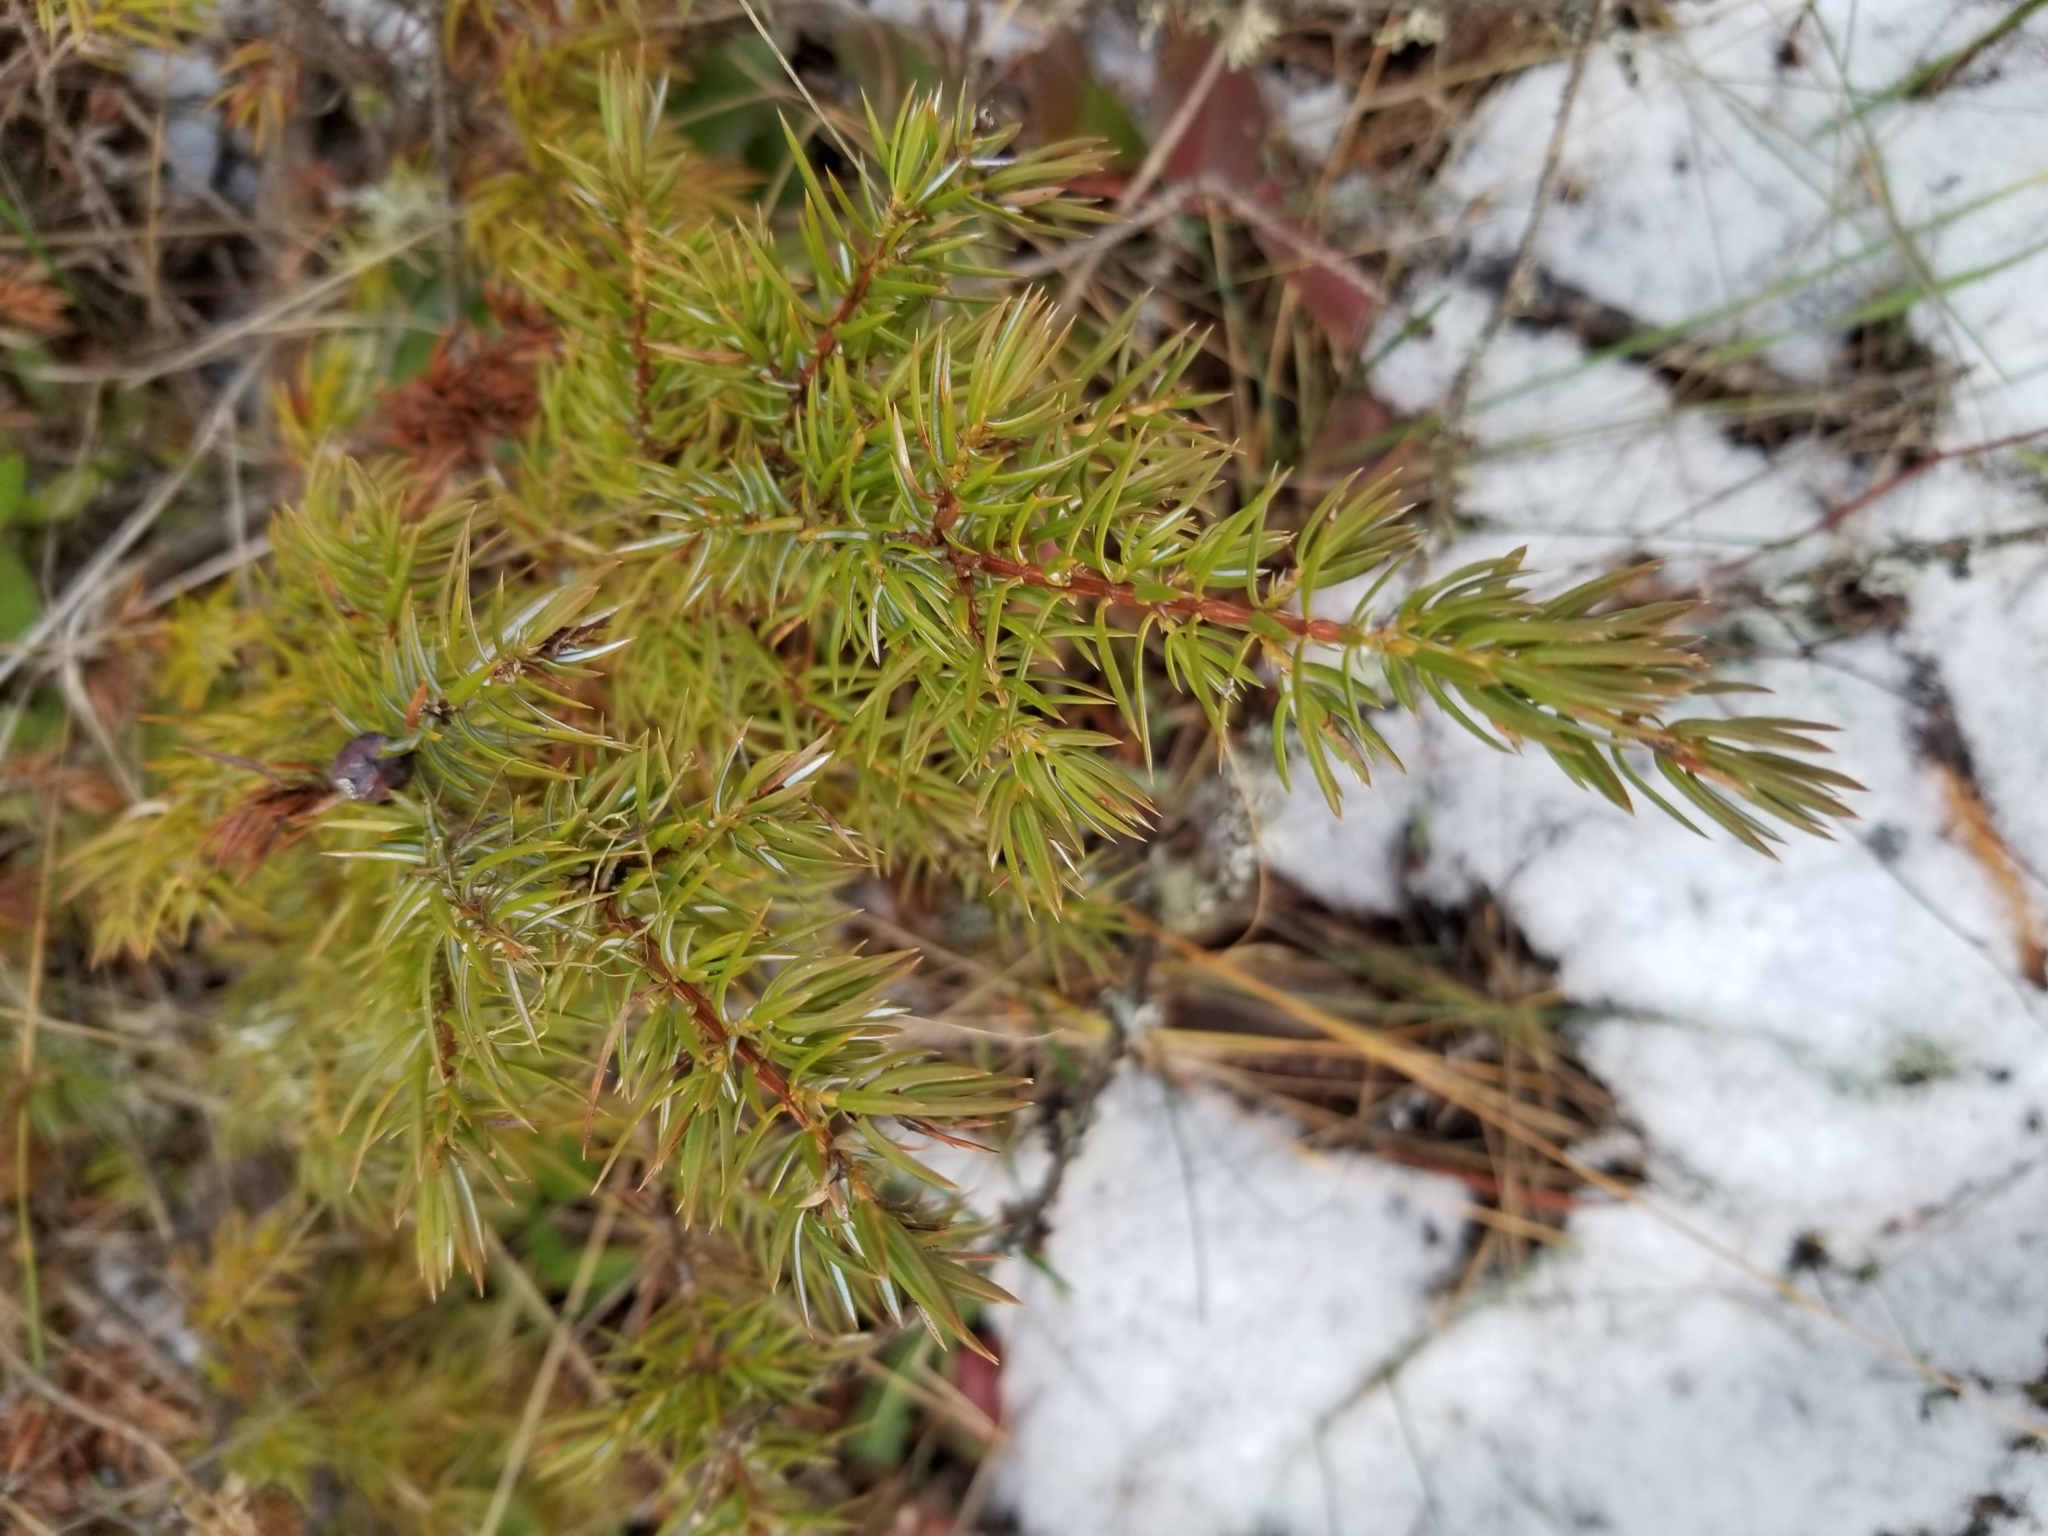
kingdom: Plantae
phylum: Tracheophyta
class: Pinopsida
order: Pinales
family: Cupressaceae
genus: Juniperus
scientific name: Juniperus communis
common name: Common juniper
